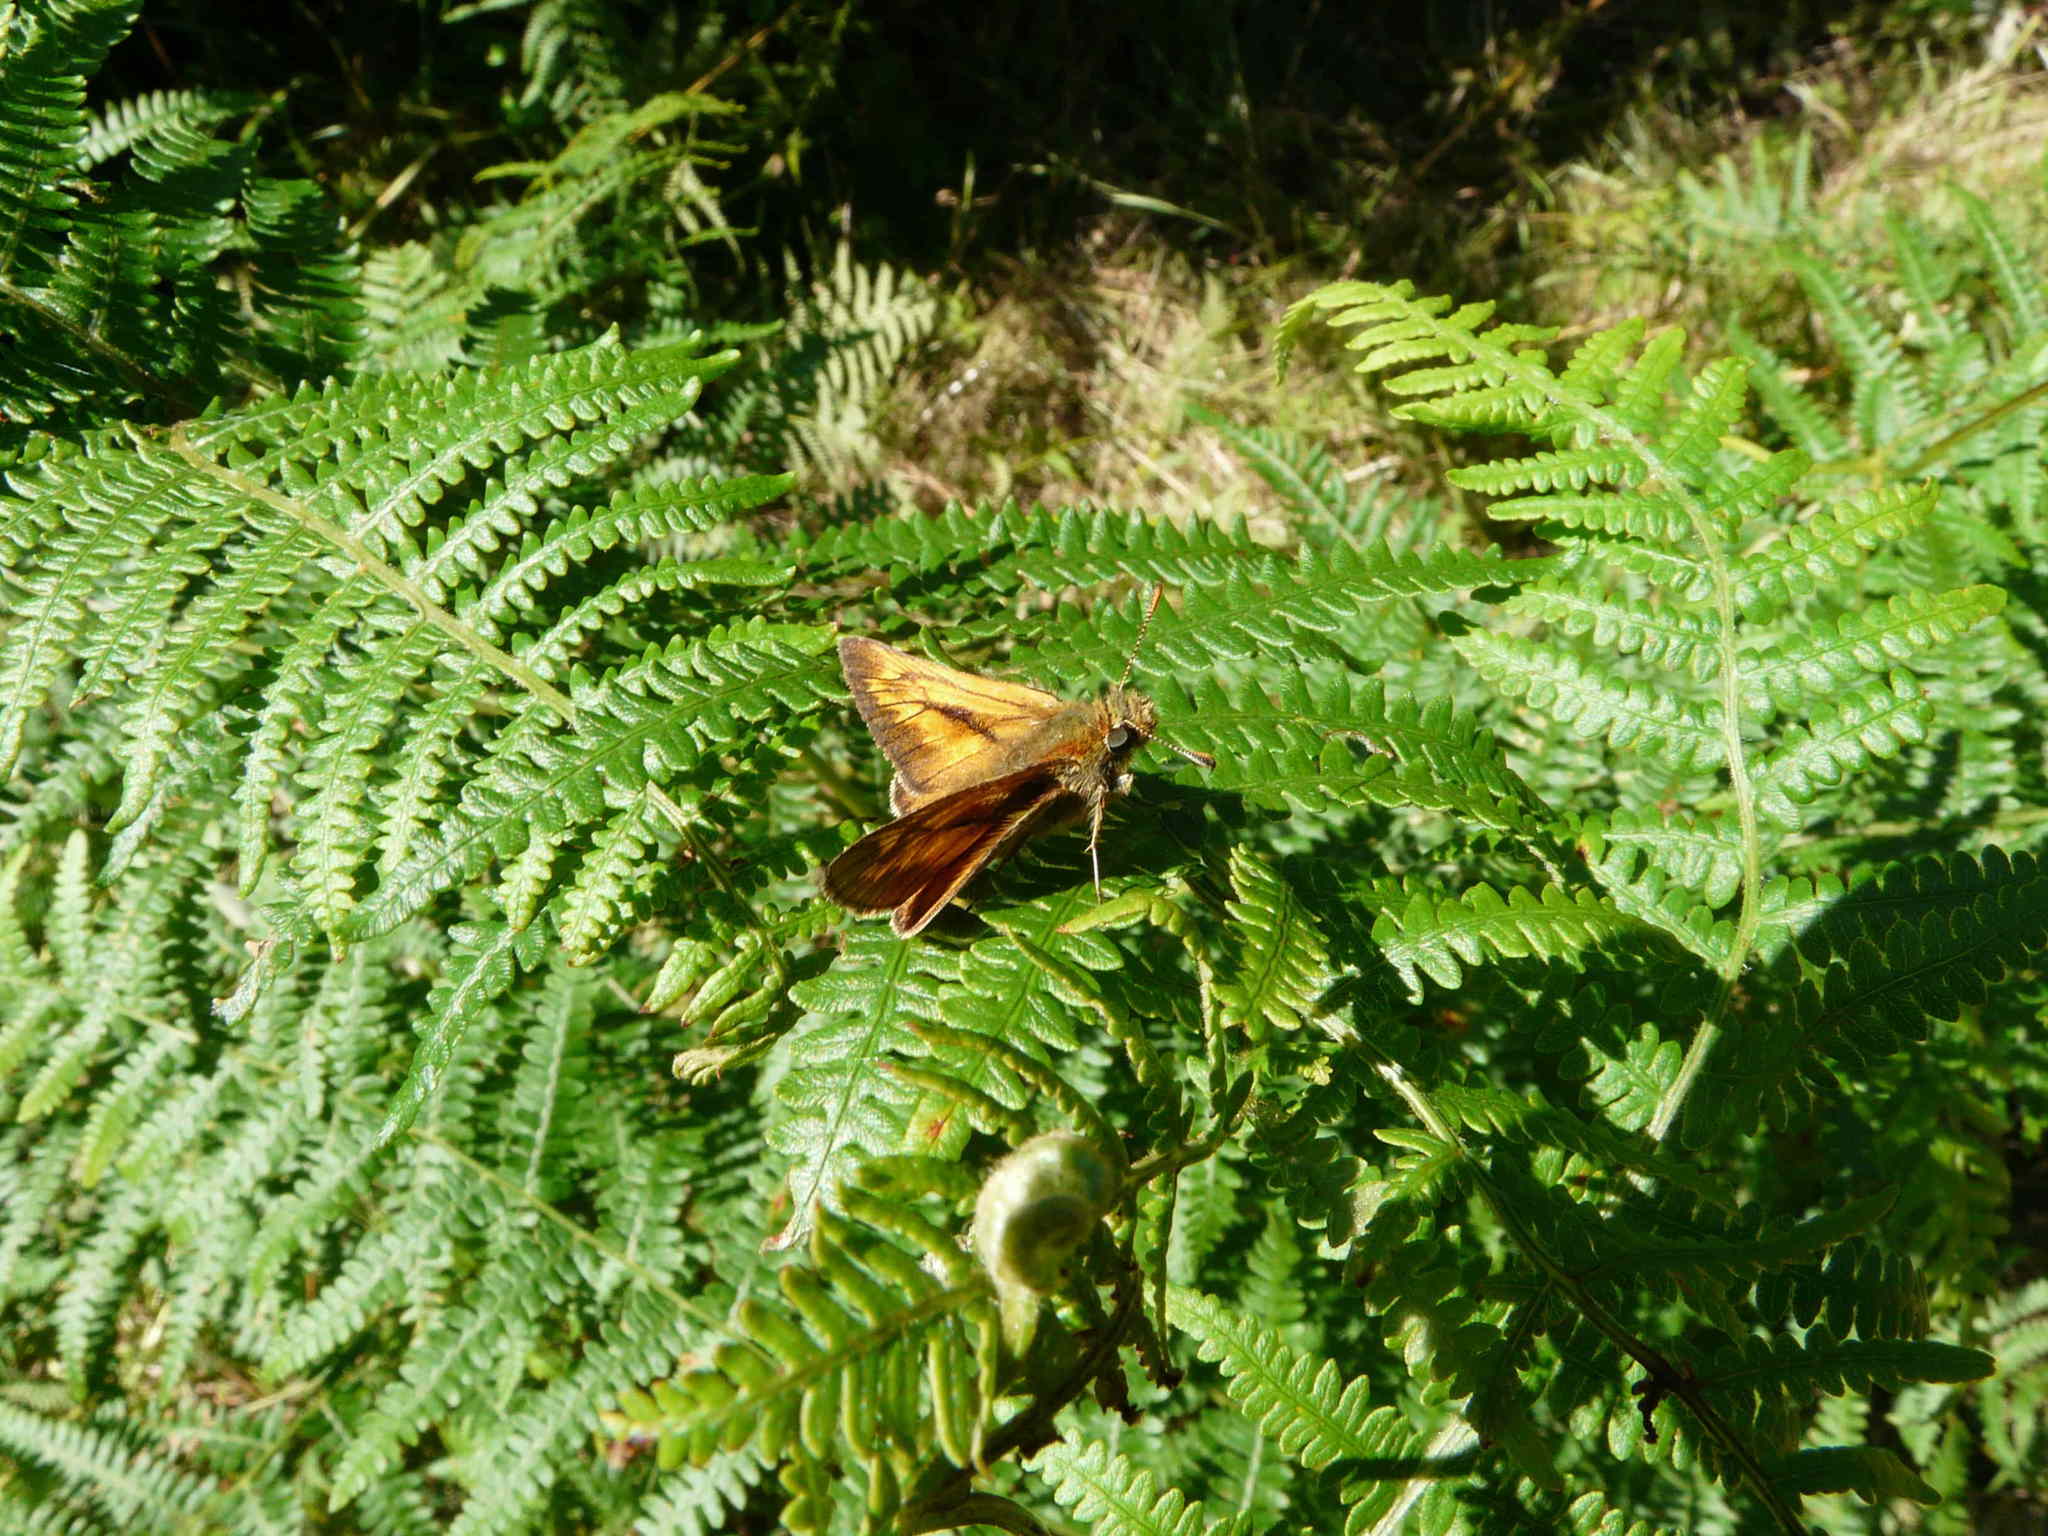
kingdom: Animalia
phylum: Arthropoda
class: Insecta
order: Lepidoptera
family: Hesperiidae
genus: Ochlodes
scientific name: Ochlodes venata
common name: Large skipper
